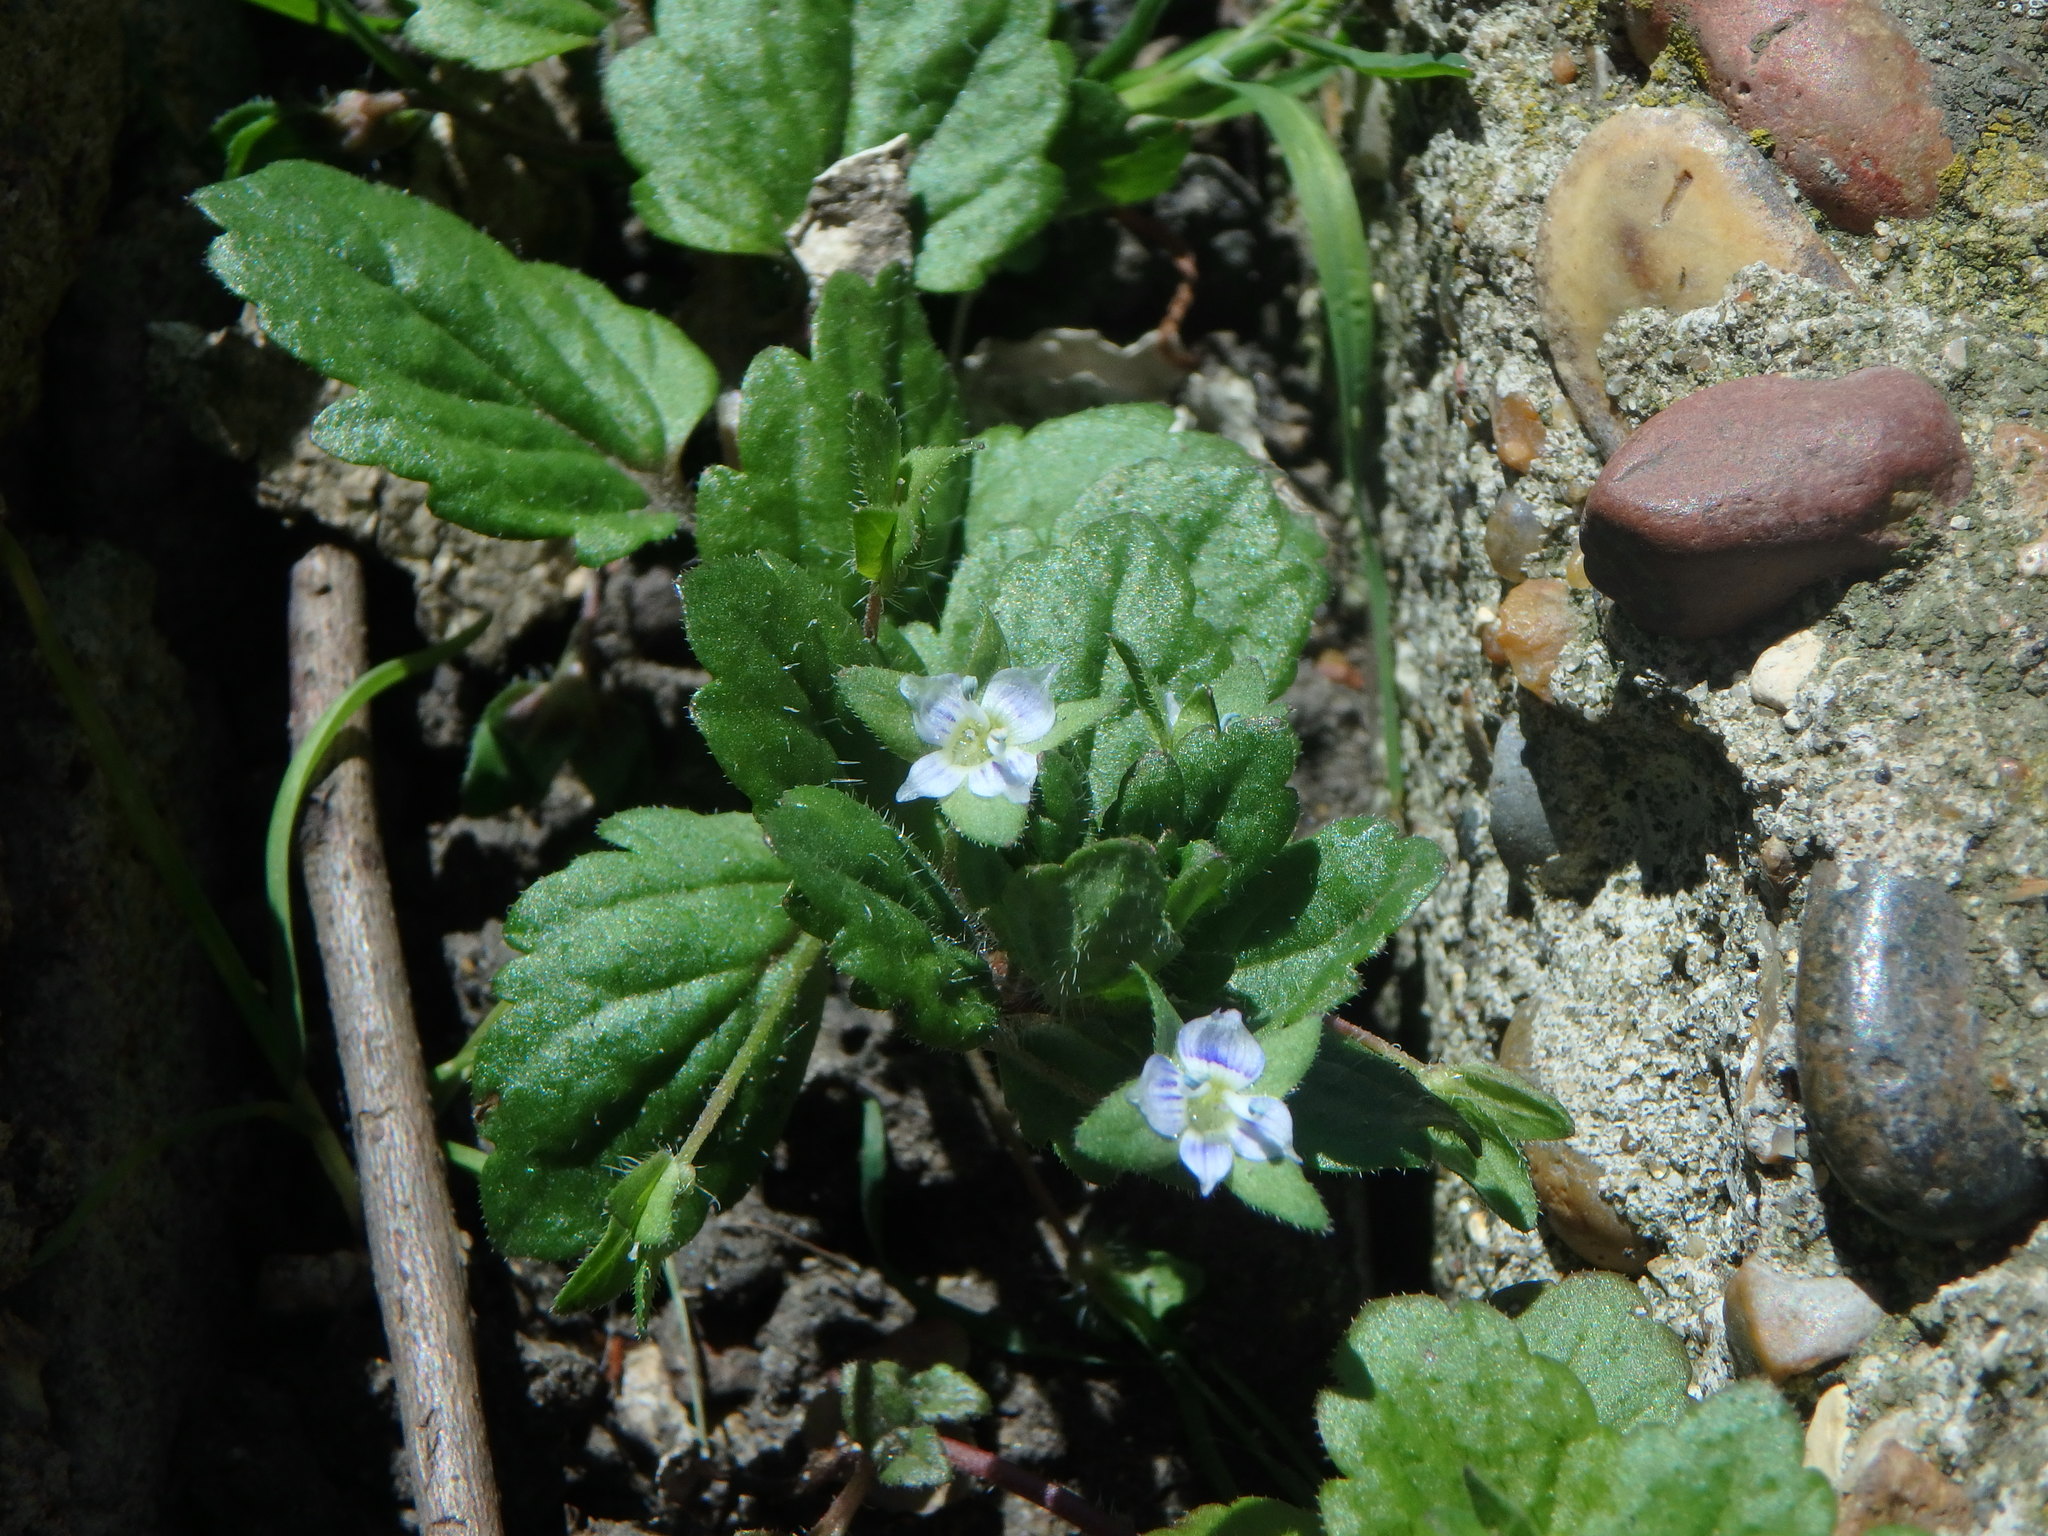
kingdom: Plantae
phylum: Tracheophyta
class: Magnoliopsida
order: Lamiales
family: Plantaginaceae
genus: Veronica
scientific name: Veronica agrestis
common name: Green field-speedwell
